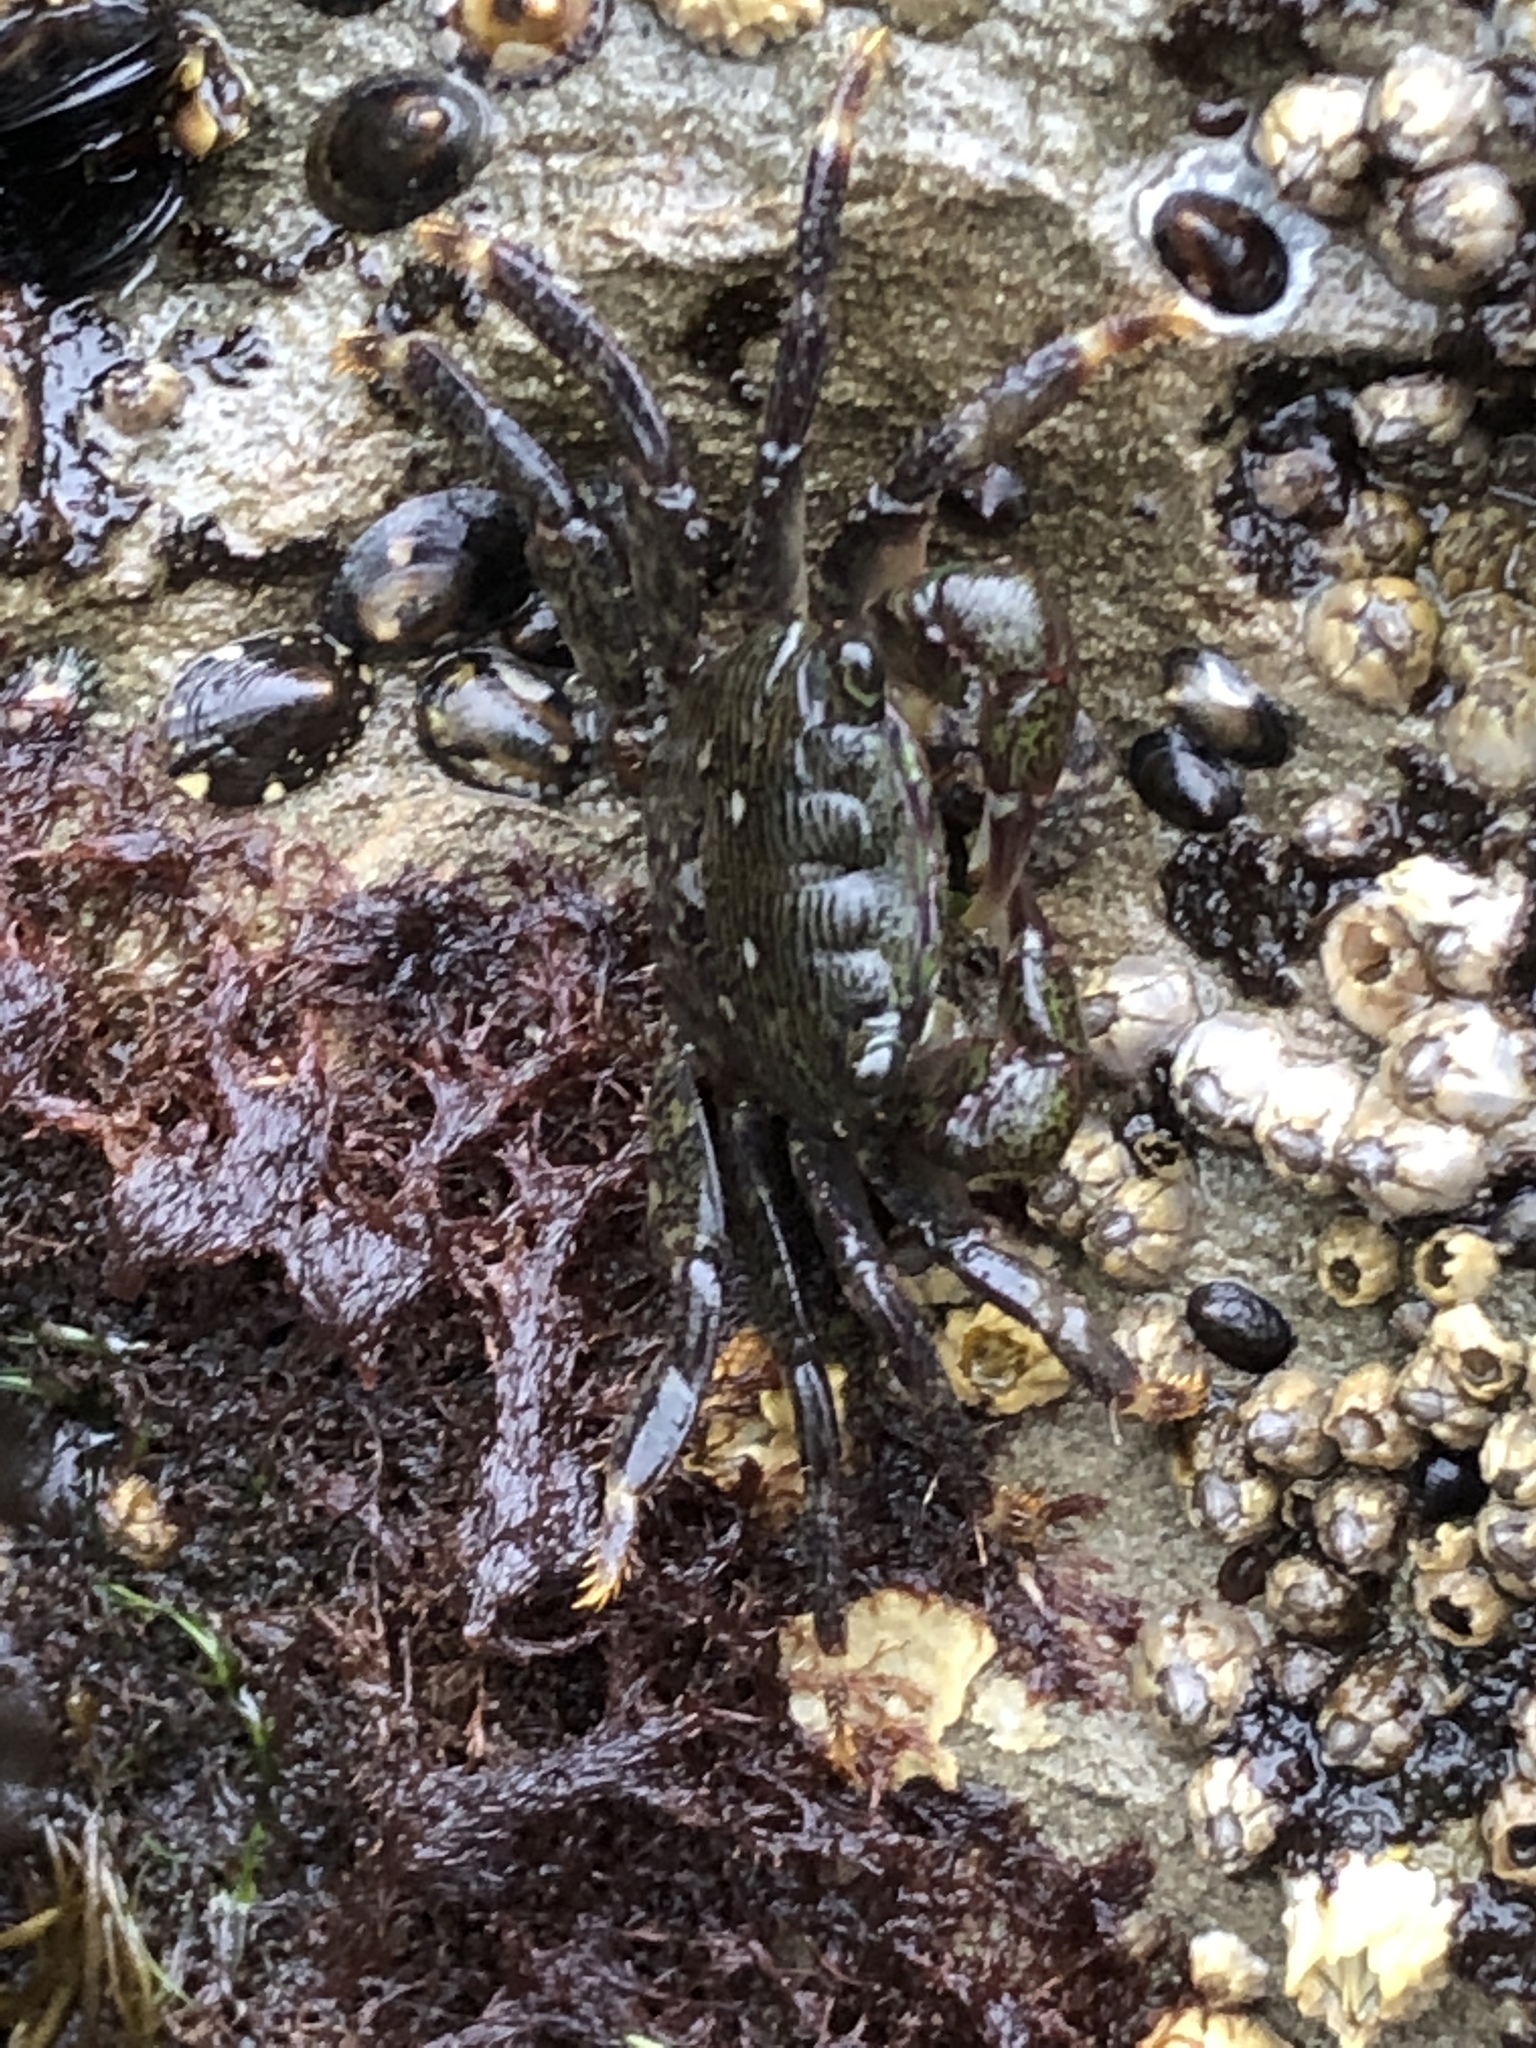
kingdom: Animalia
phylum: Arthropoda
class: Malacostraca
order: Decapoda
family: Grapsidae
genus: Pachygrapsus
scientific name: Pachygrapsus crassipes
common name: Striped shore crab
